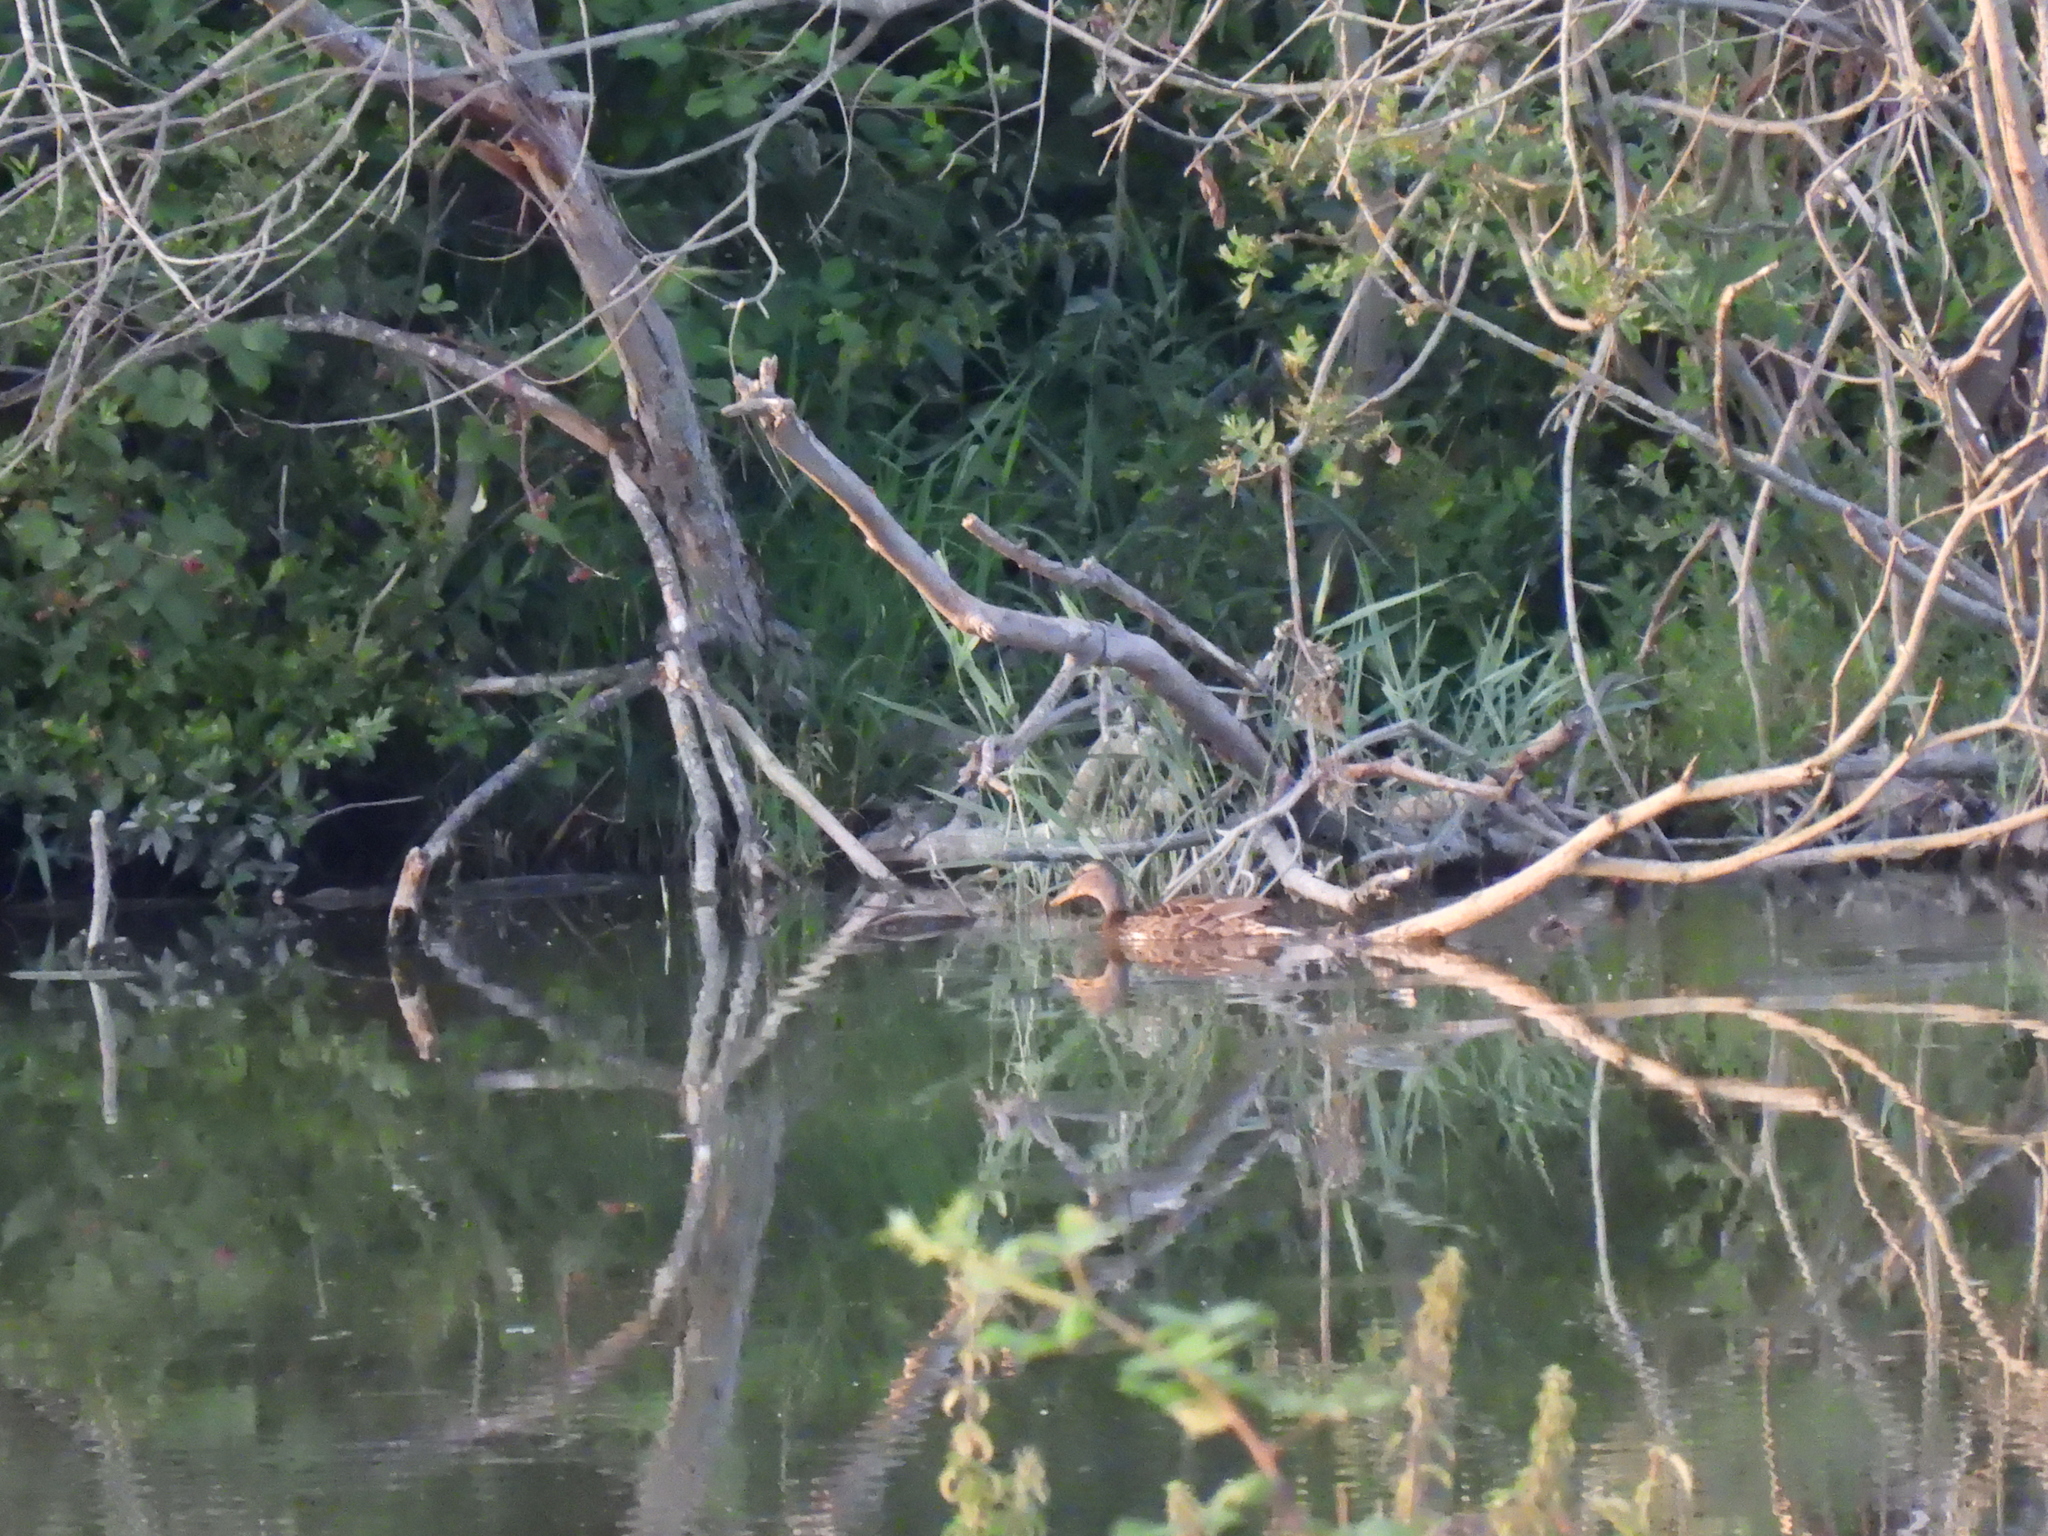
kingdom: Animalia
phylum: Chordata
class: Aves
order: Anseriformes
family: Anatidae
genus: Anas
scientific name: Anas platyrhynchos
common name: Mallard
